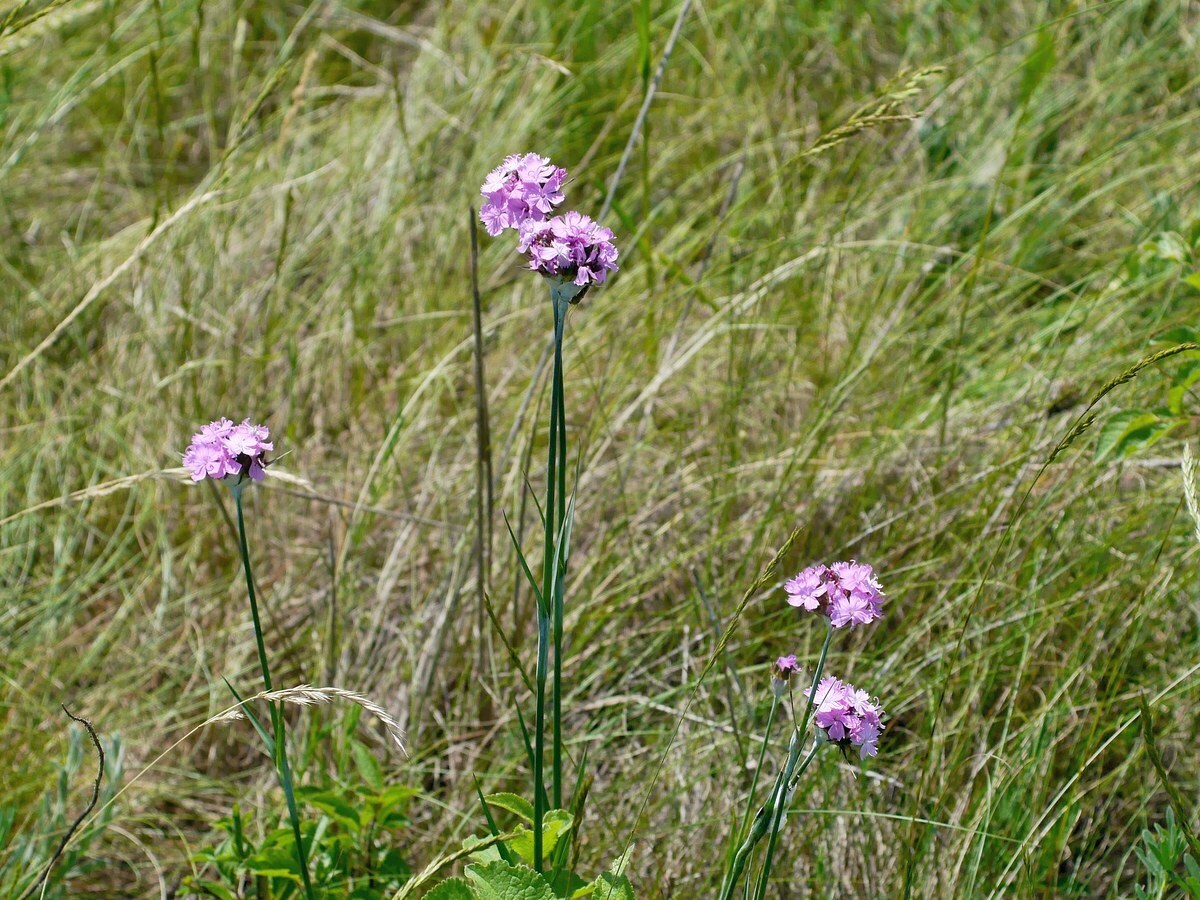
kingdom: Plantae
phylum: Tracheophyta
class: Magnoliopsida
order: Caryophyllales
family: Caryophyllaceae
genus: Dianthus
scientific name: Dianthus capitatus
